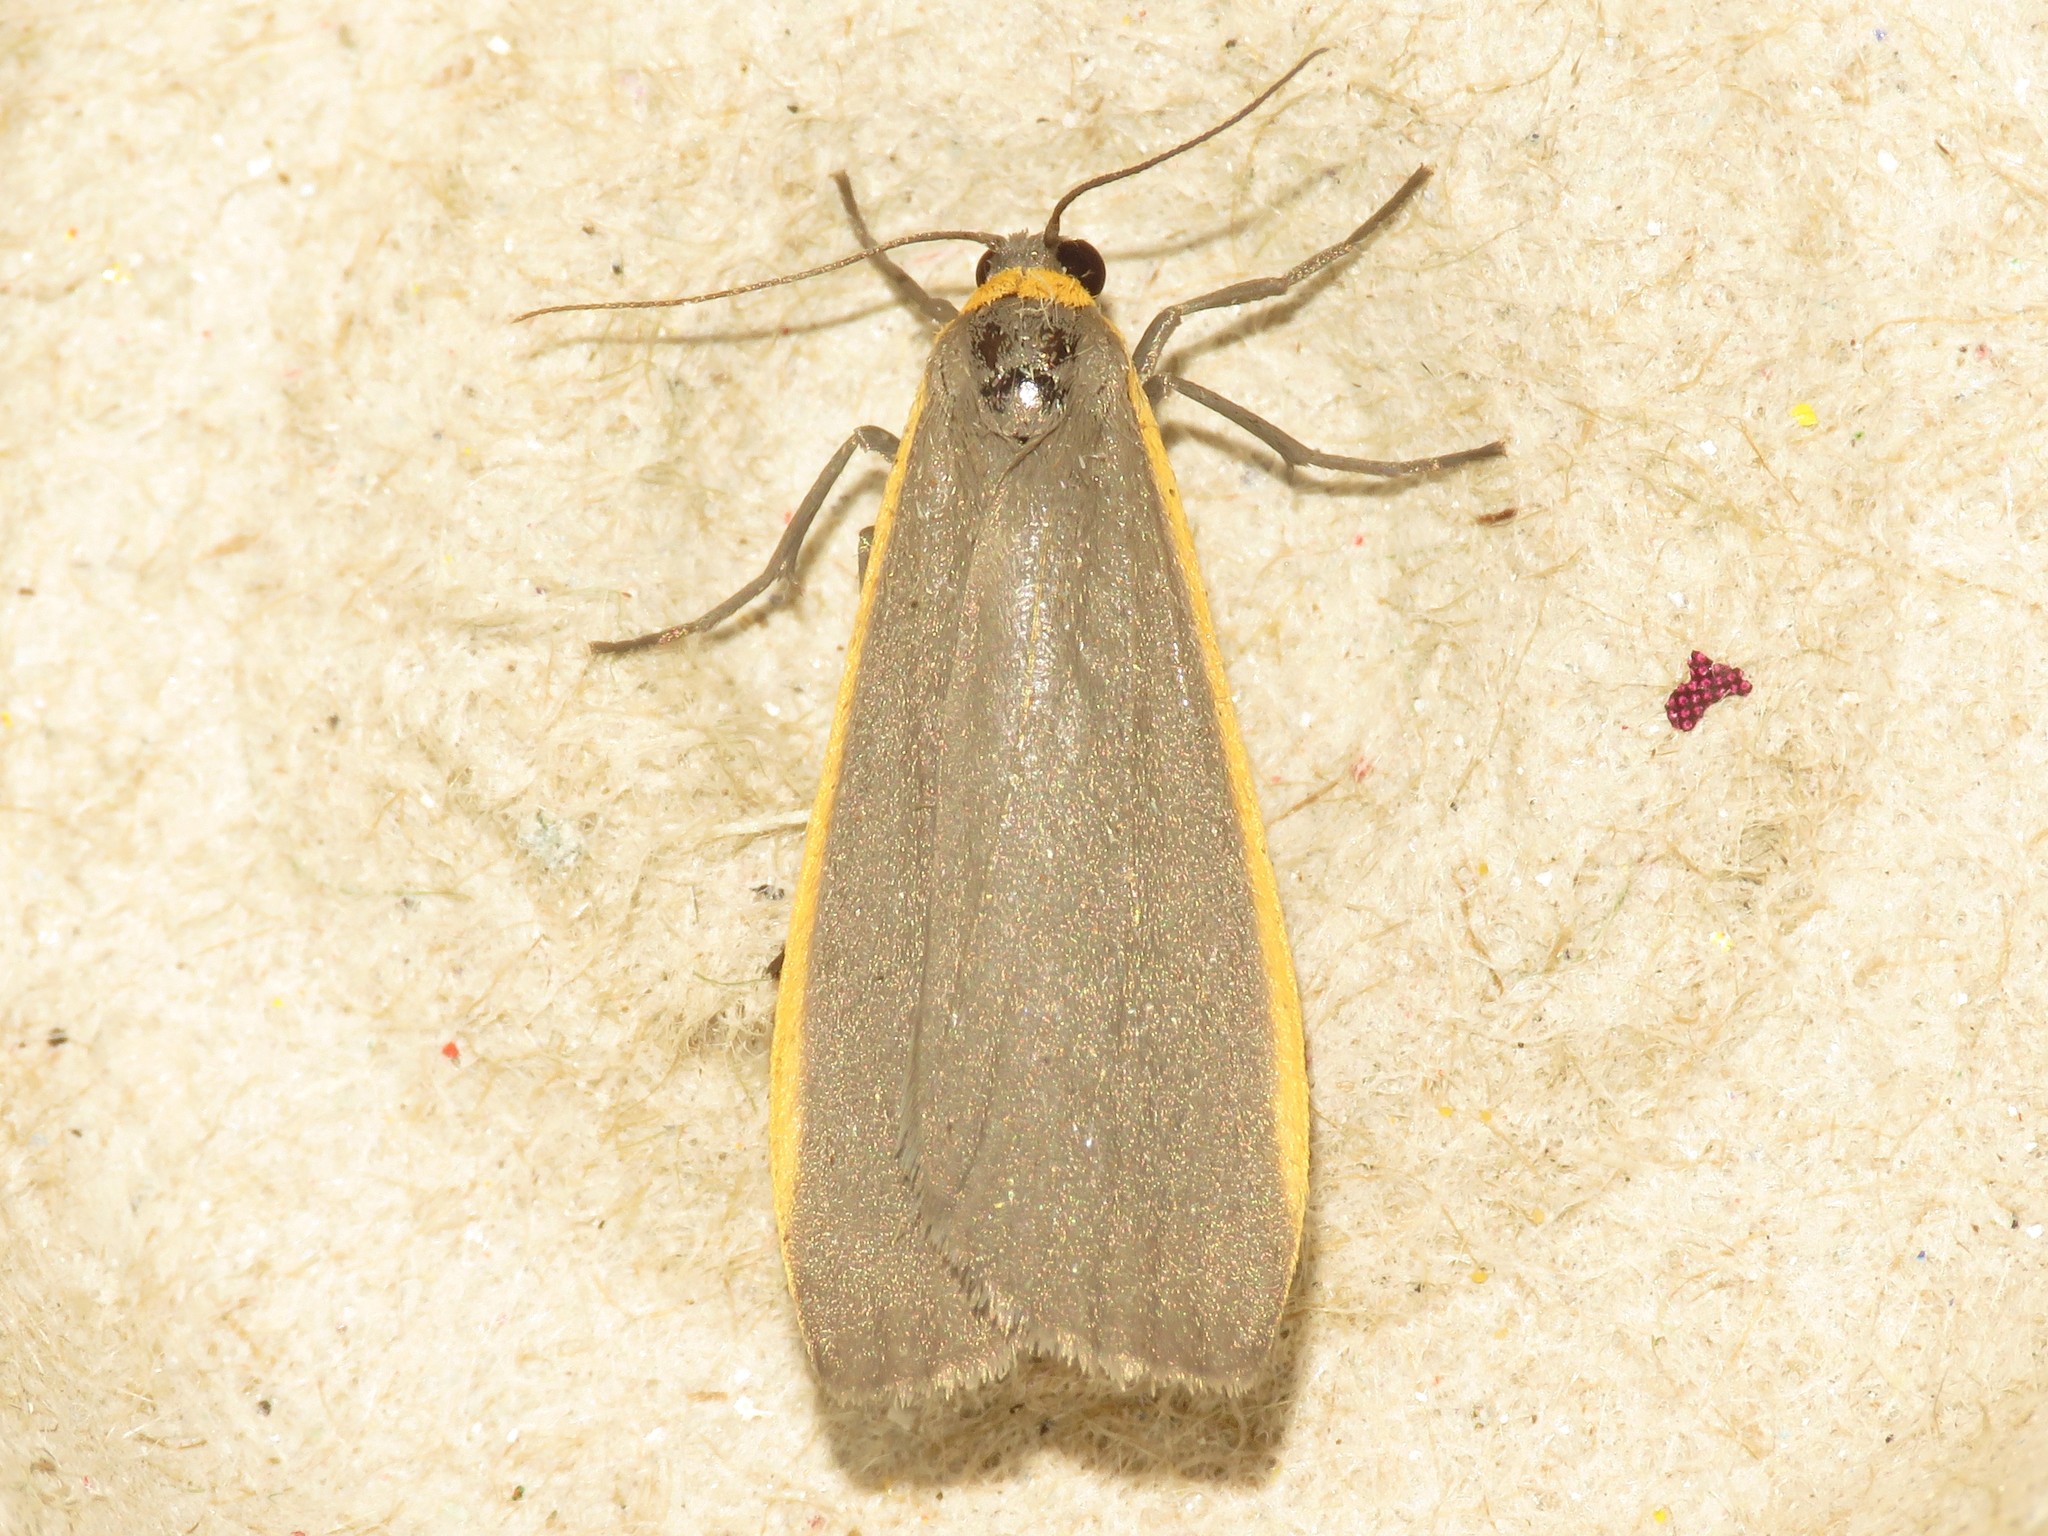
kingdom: Animalia
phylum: Arthropoda
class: Insecta
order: Lepidoptera
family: Erebidae
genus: Manulea
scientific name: Manulea bicolor
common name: Bicolored moth
